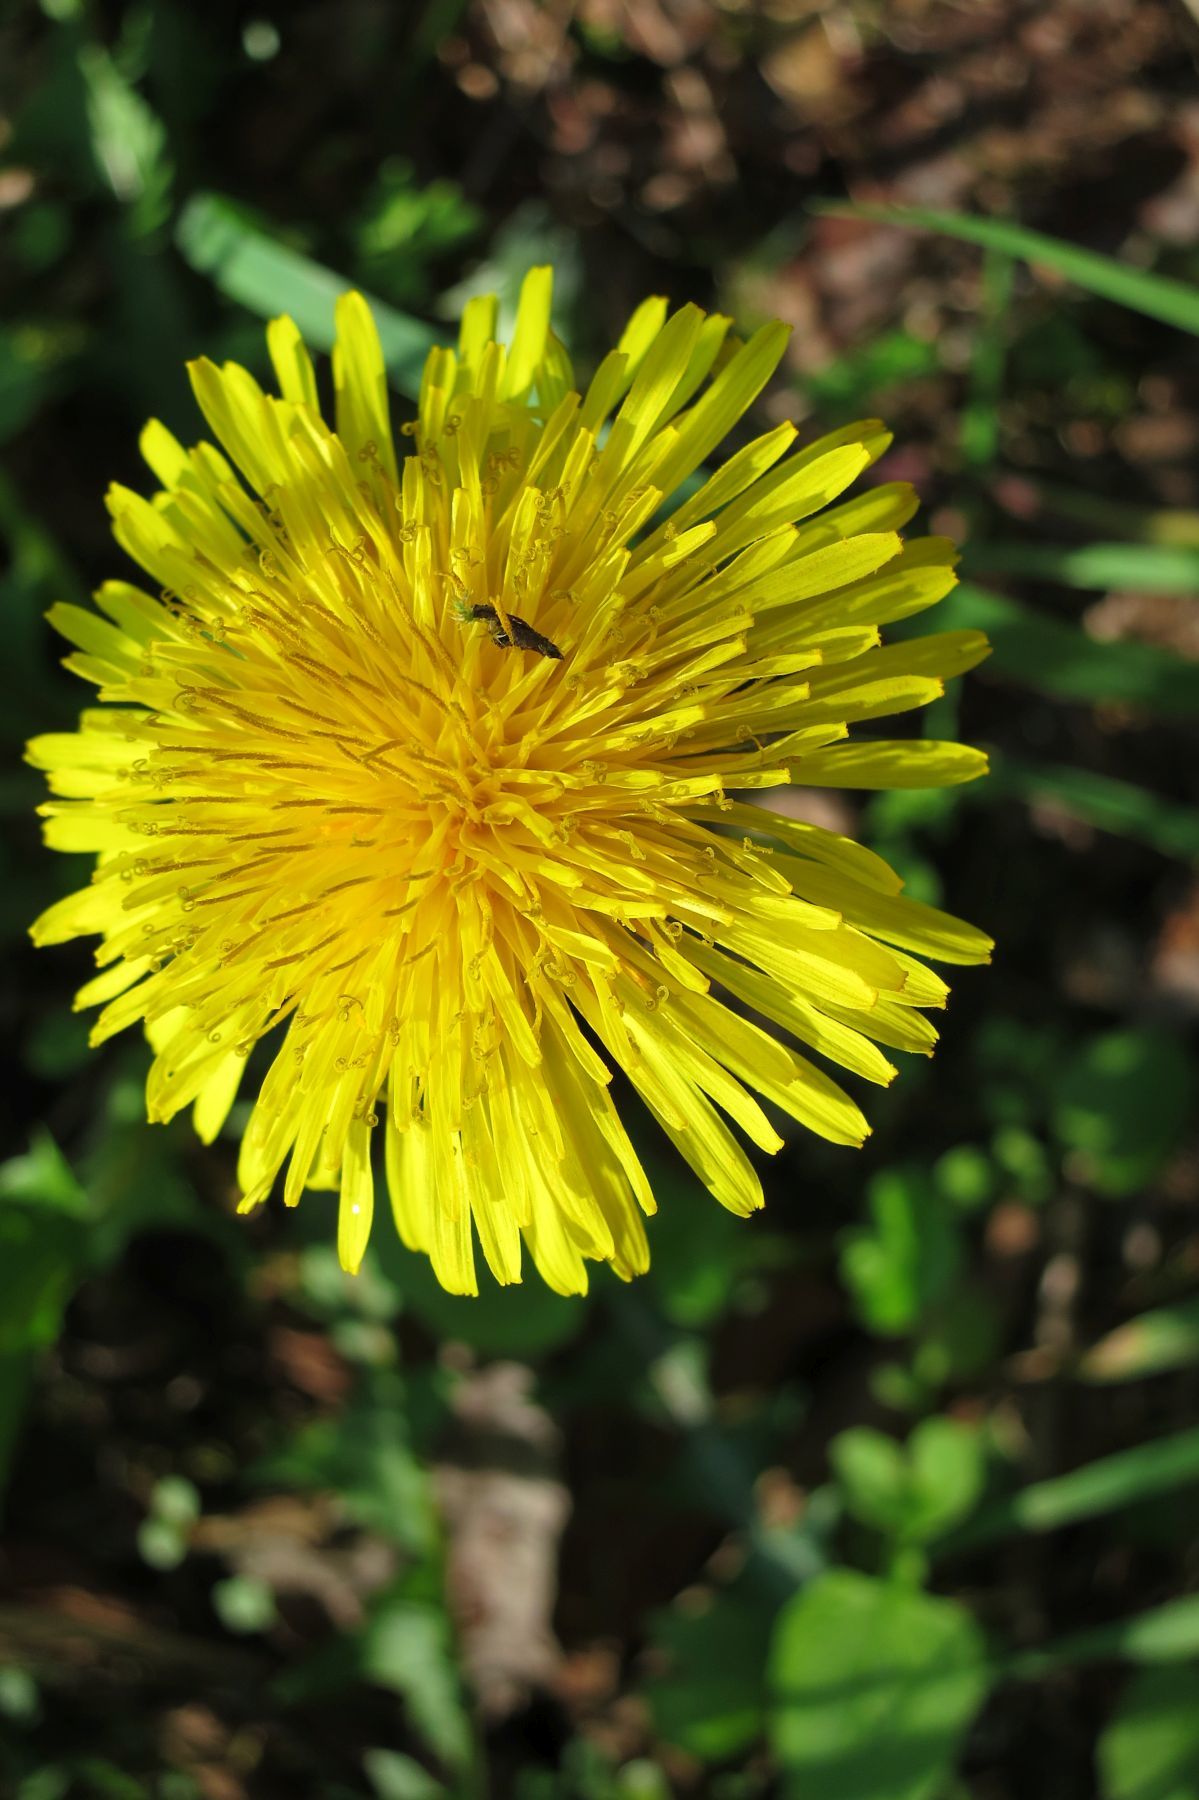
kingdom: Plantae
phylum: Tracheophyta
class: Magnoliopsida
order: Asterales
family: Asteraceae
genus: Taraxacum
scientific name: Taraxacum officinale
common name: Common dandelion
